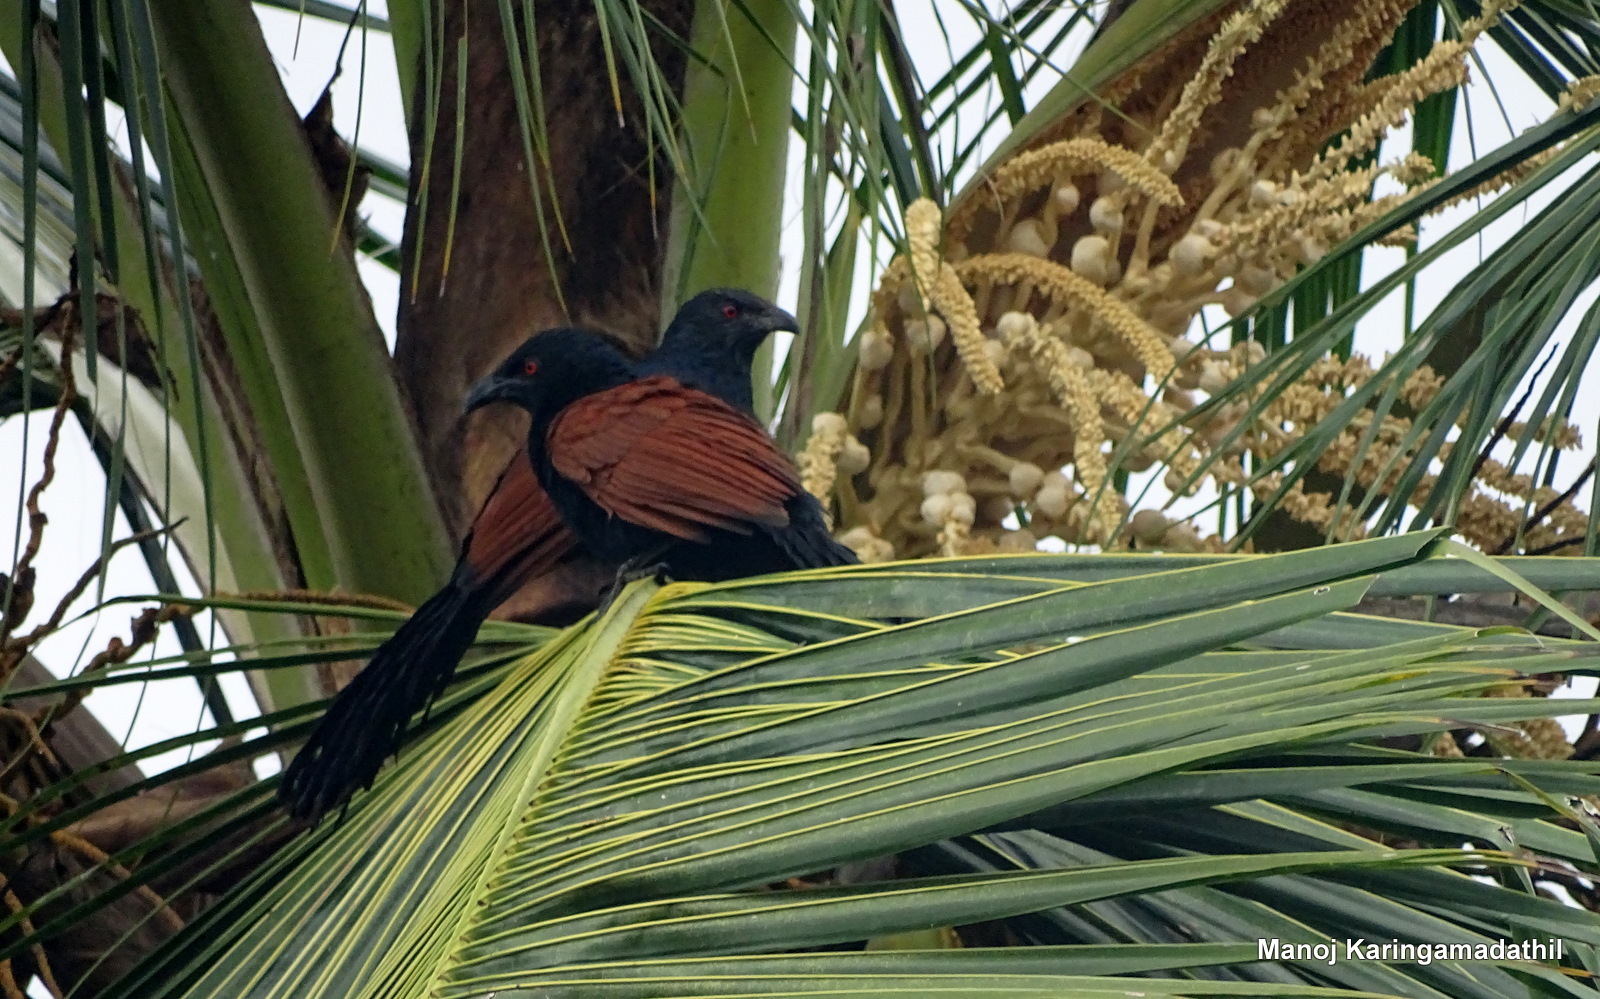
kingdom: Animalia
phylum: Chordata
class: Aves
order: Cuculiformes
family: Cuculidae
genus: Centropus
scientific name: Centropus sinensis
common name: Greater coucal
